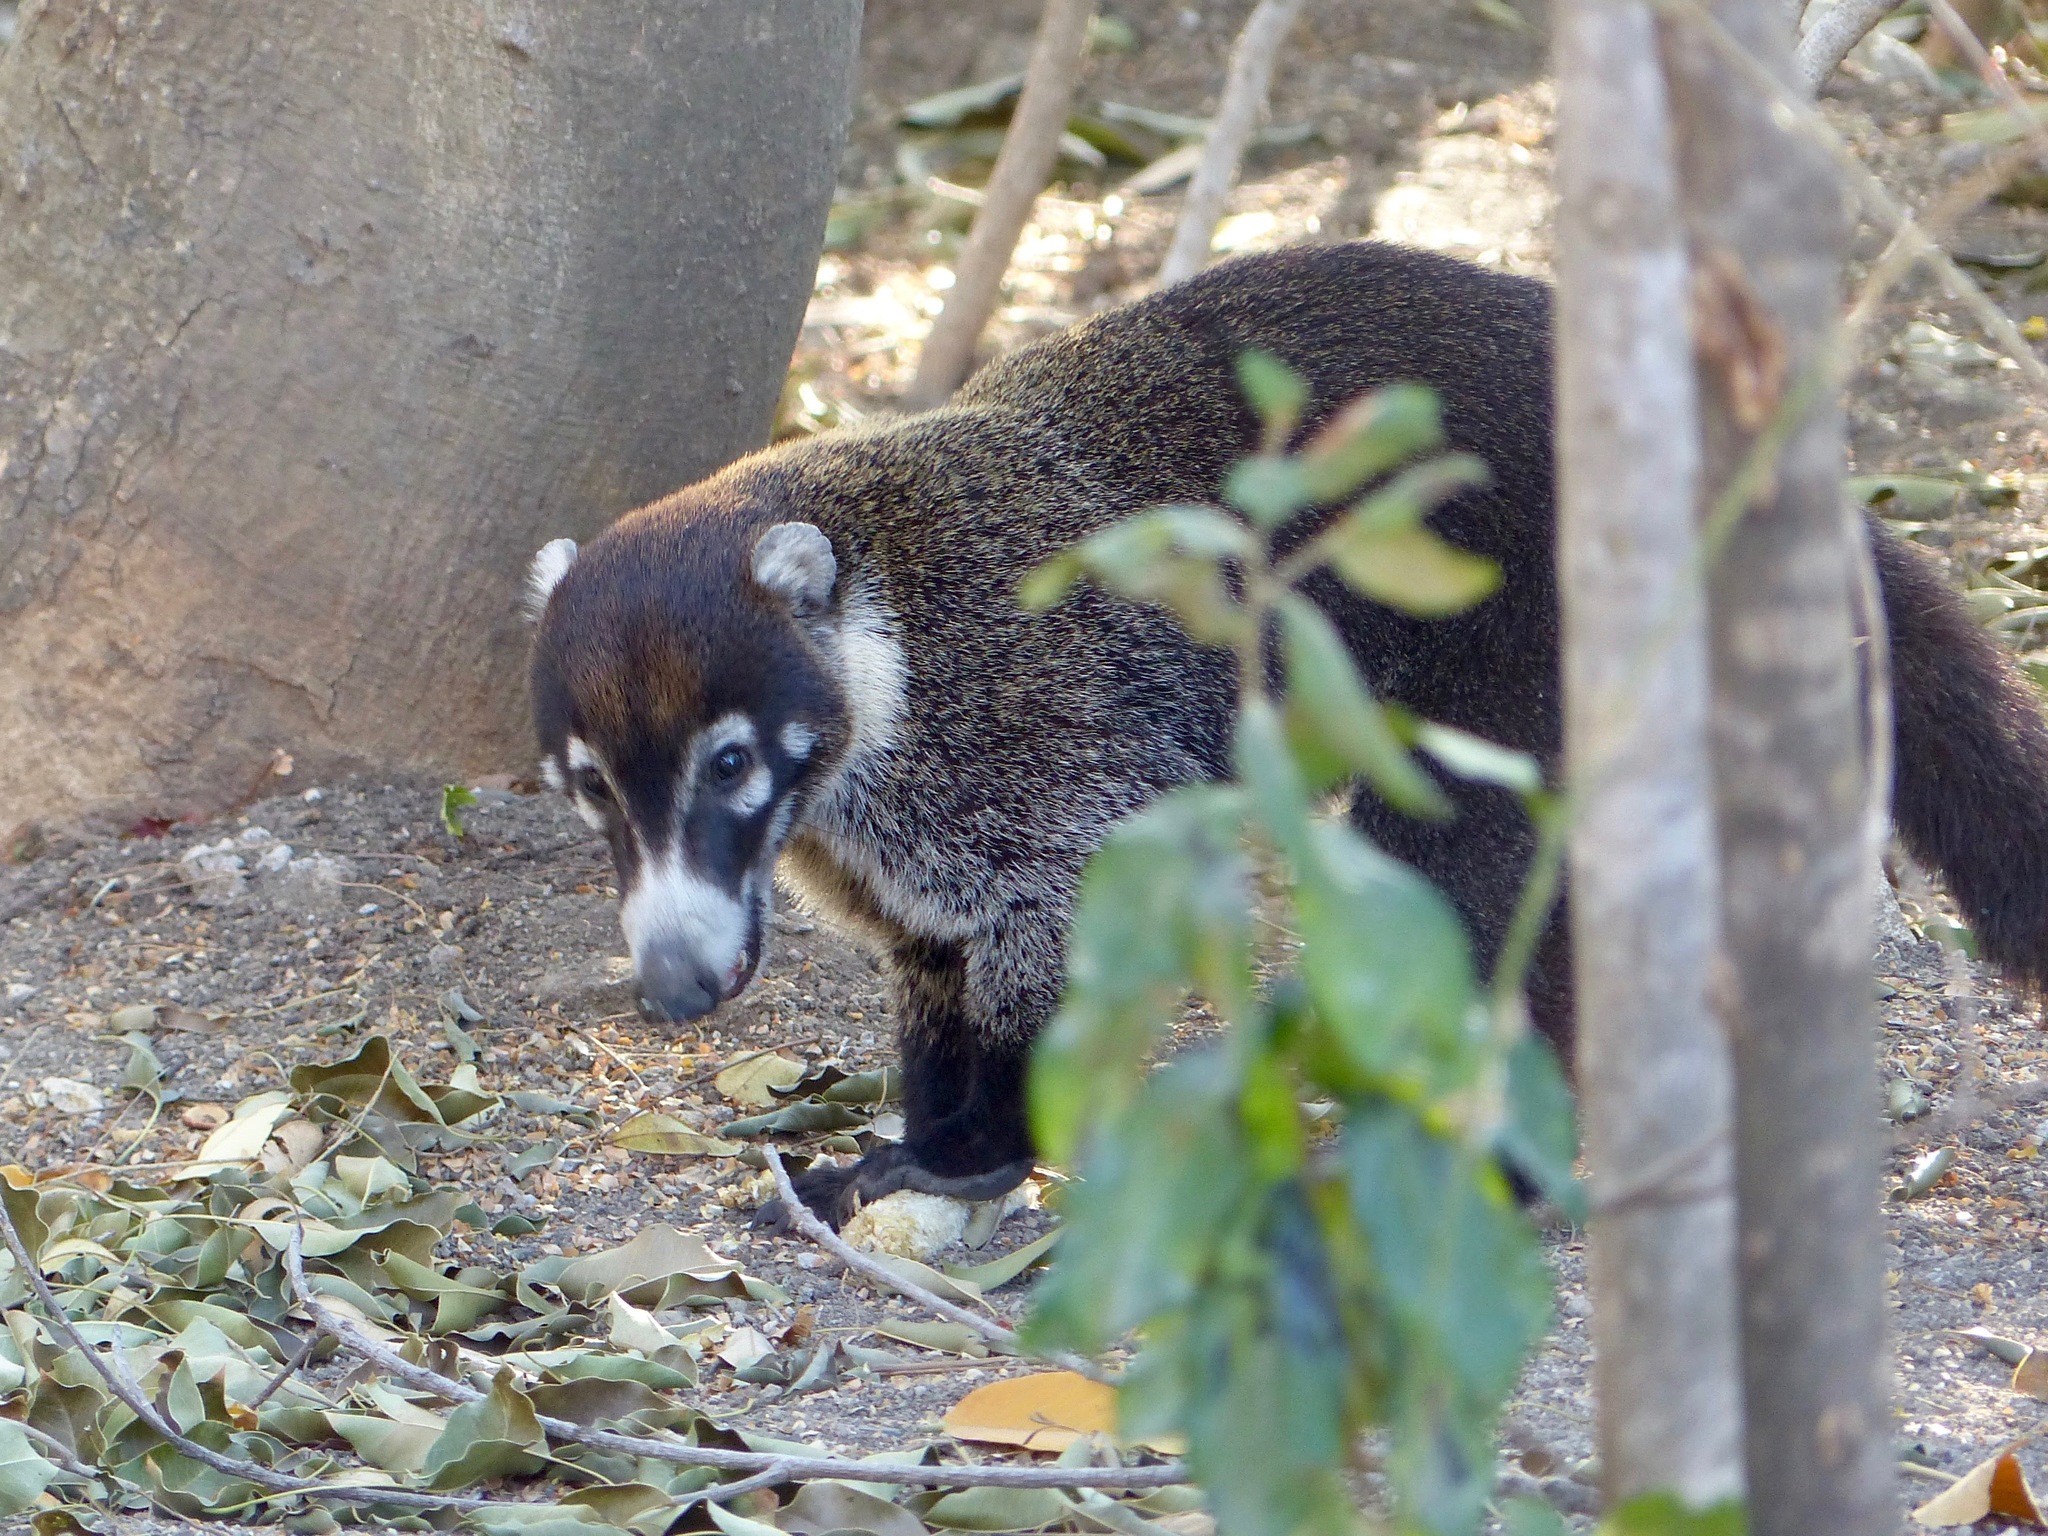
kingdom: Animalia
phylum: Chordata
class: Mammalia
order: Carnivora
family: Procyonidae
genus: Nasua
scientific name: Nasua narica
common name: White-nosed coati
